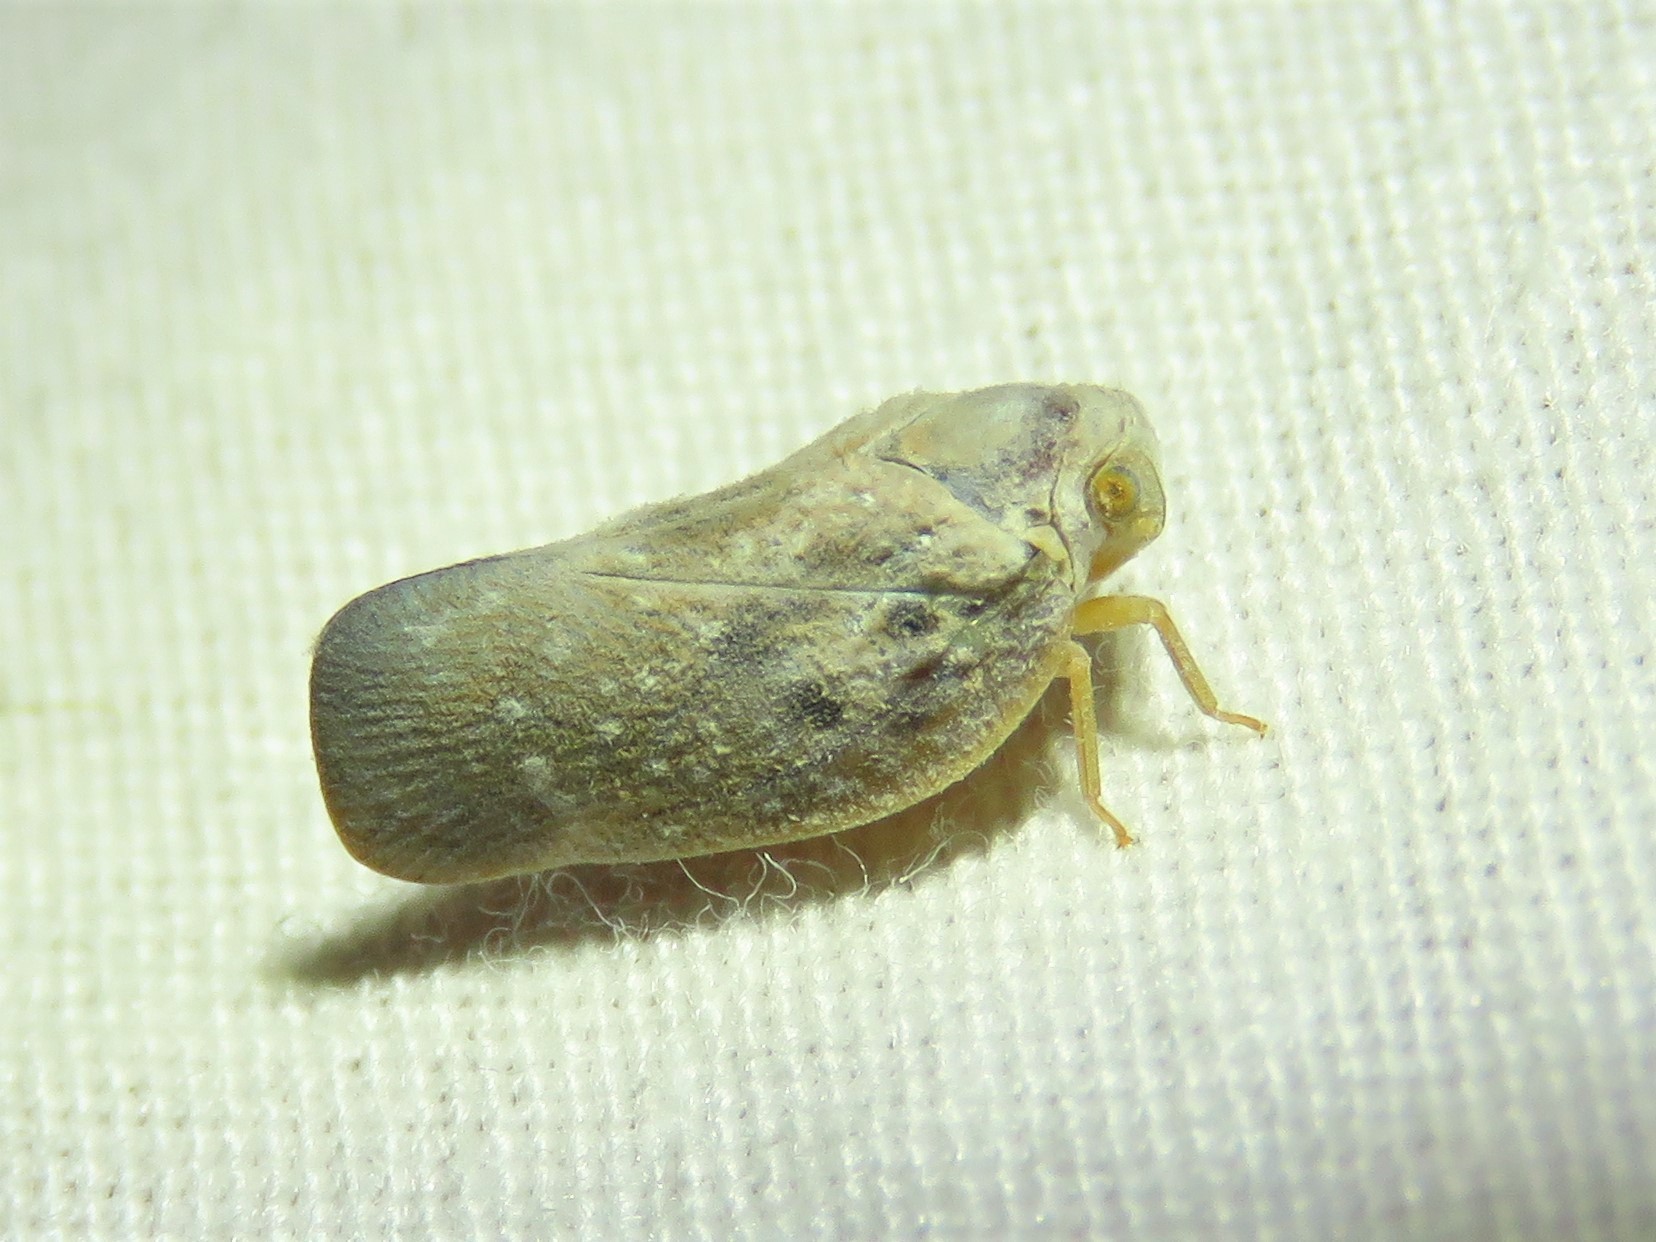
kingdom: Animalia
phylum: Arthropoda
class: Insecta
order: Hemiptera
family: Flatidae
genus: Metcalfa
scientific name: Metcalfa pruinosa
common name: Citrus flatid planthopper
